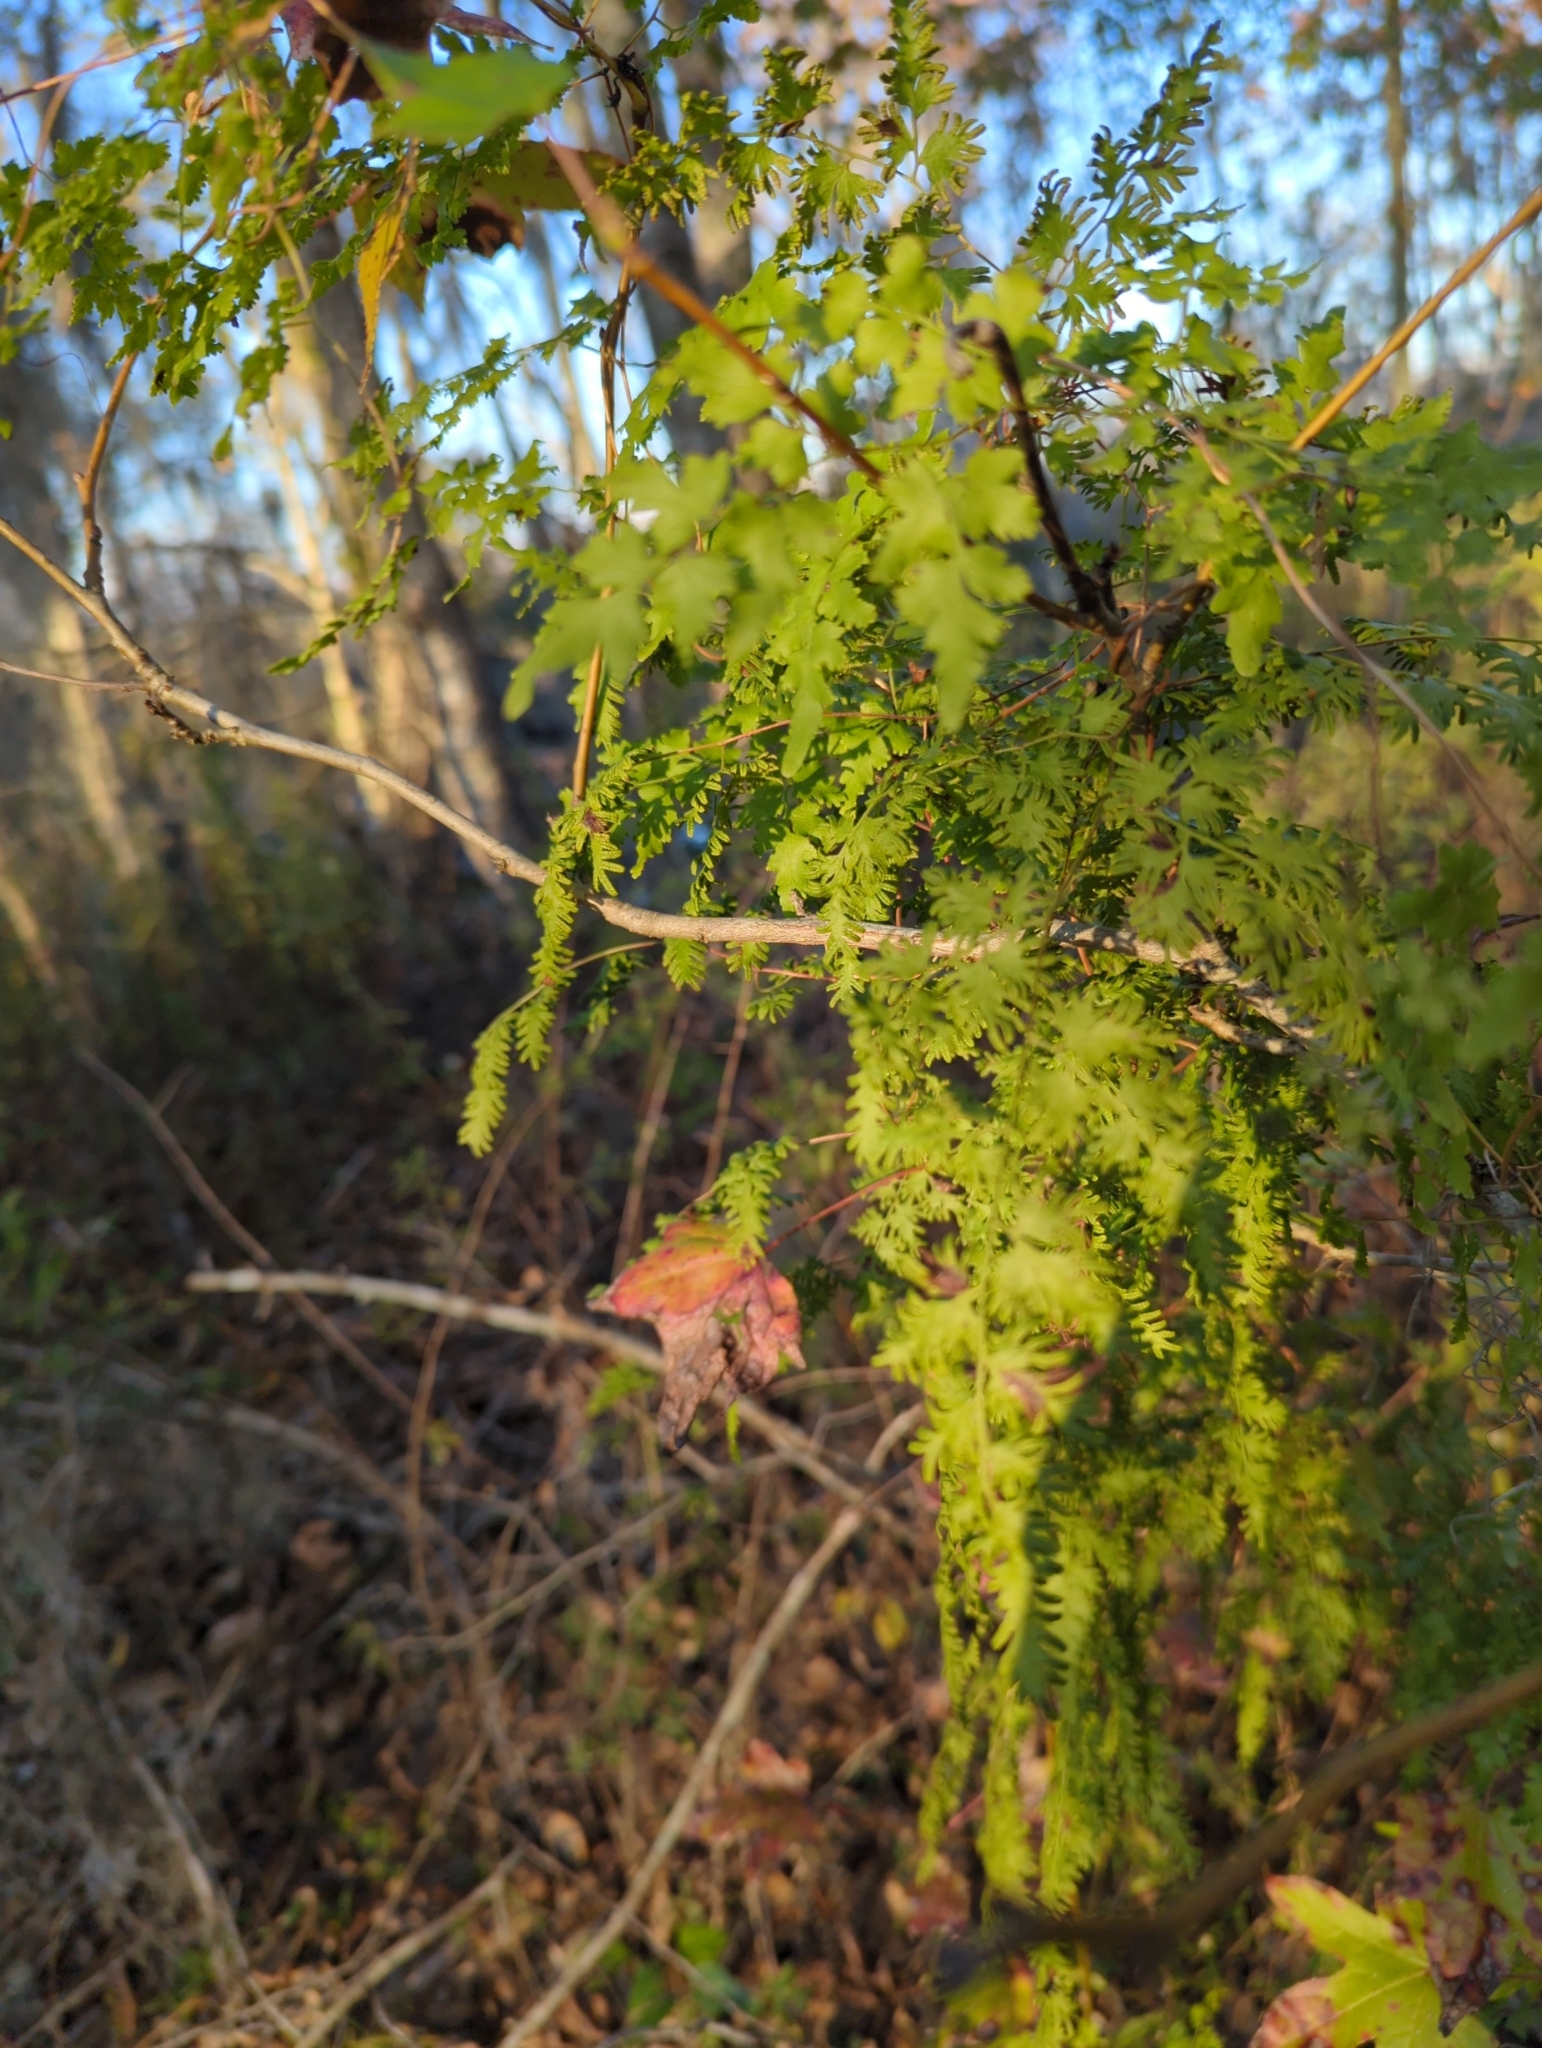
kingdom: Plantae
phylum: Tracheophyta
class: Polypodiopsida
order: Schizaeales
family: Lygodiaceae
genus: Lygodium
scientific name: Lygodium japonicum
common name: Japanese climbing fern
